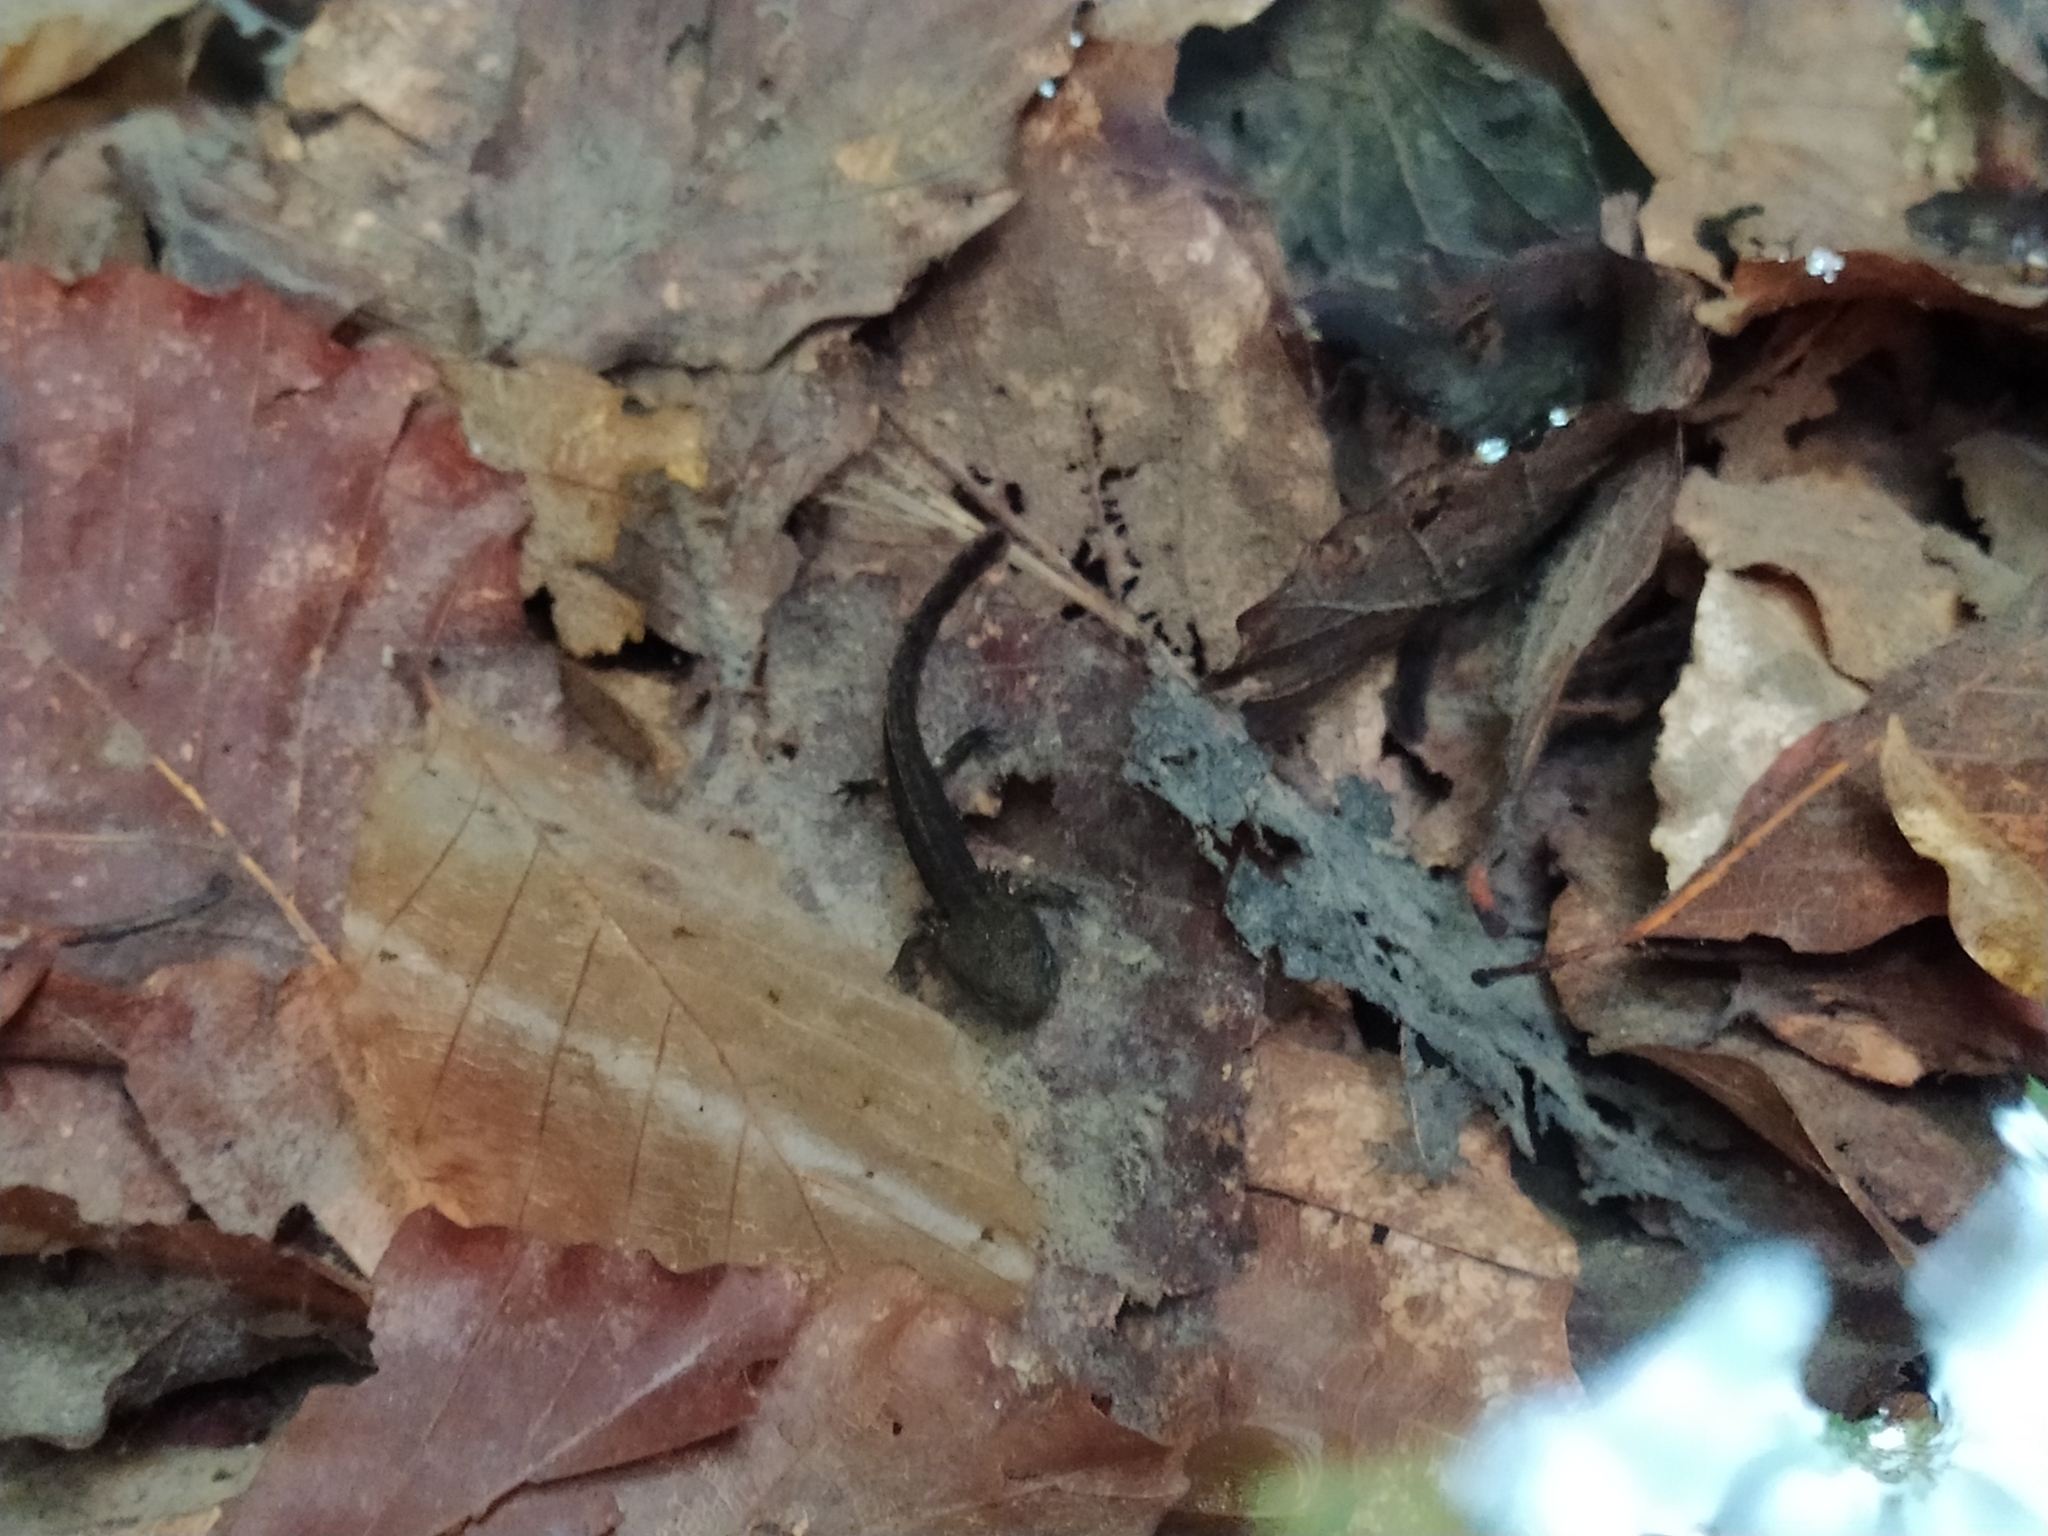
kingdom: Animalia
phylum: Chordata
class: Amphibia
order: Caudata
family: Salamandridae
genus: Salamandra
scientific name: Salamandra salamandra
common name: Fire salamander
